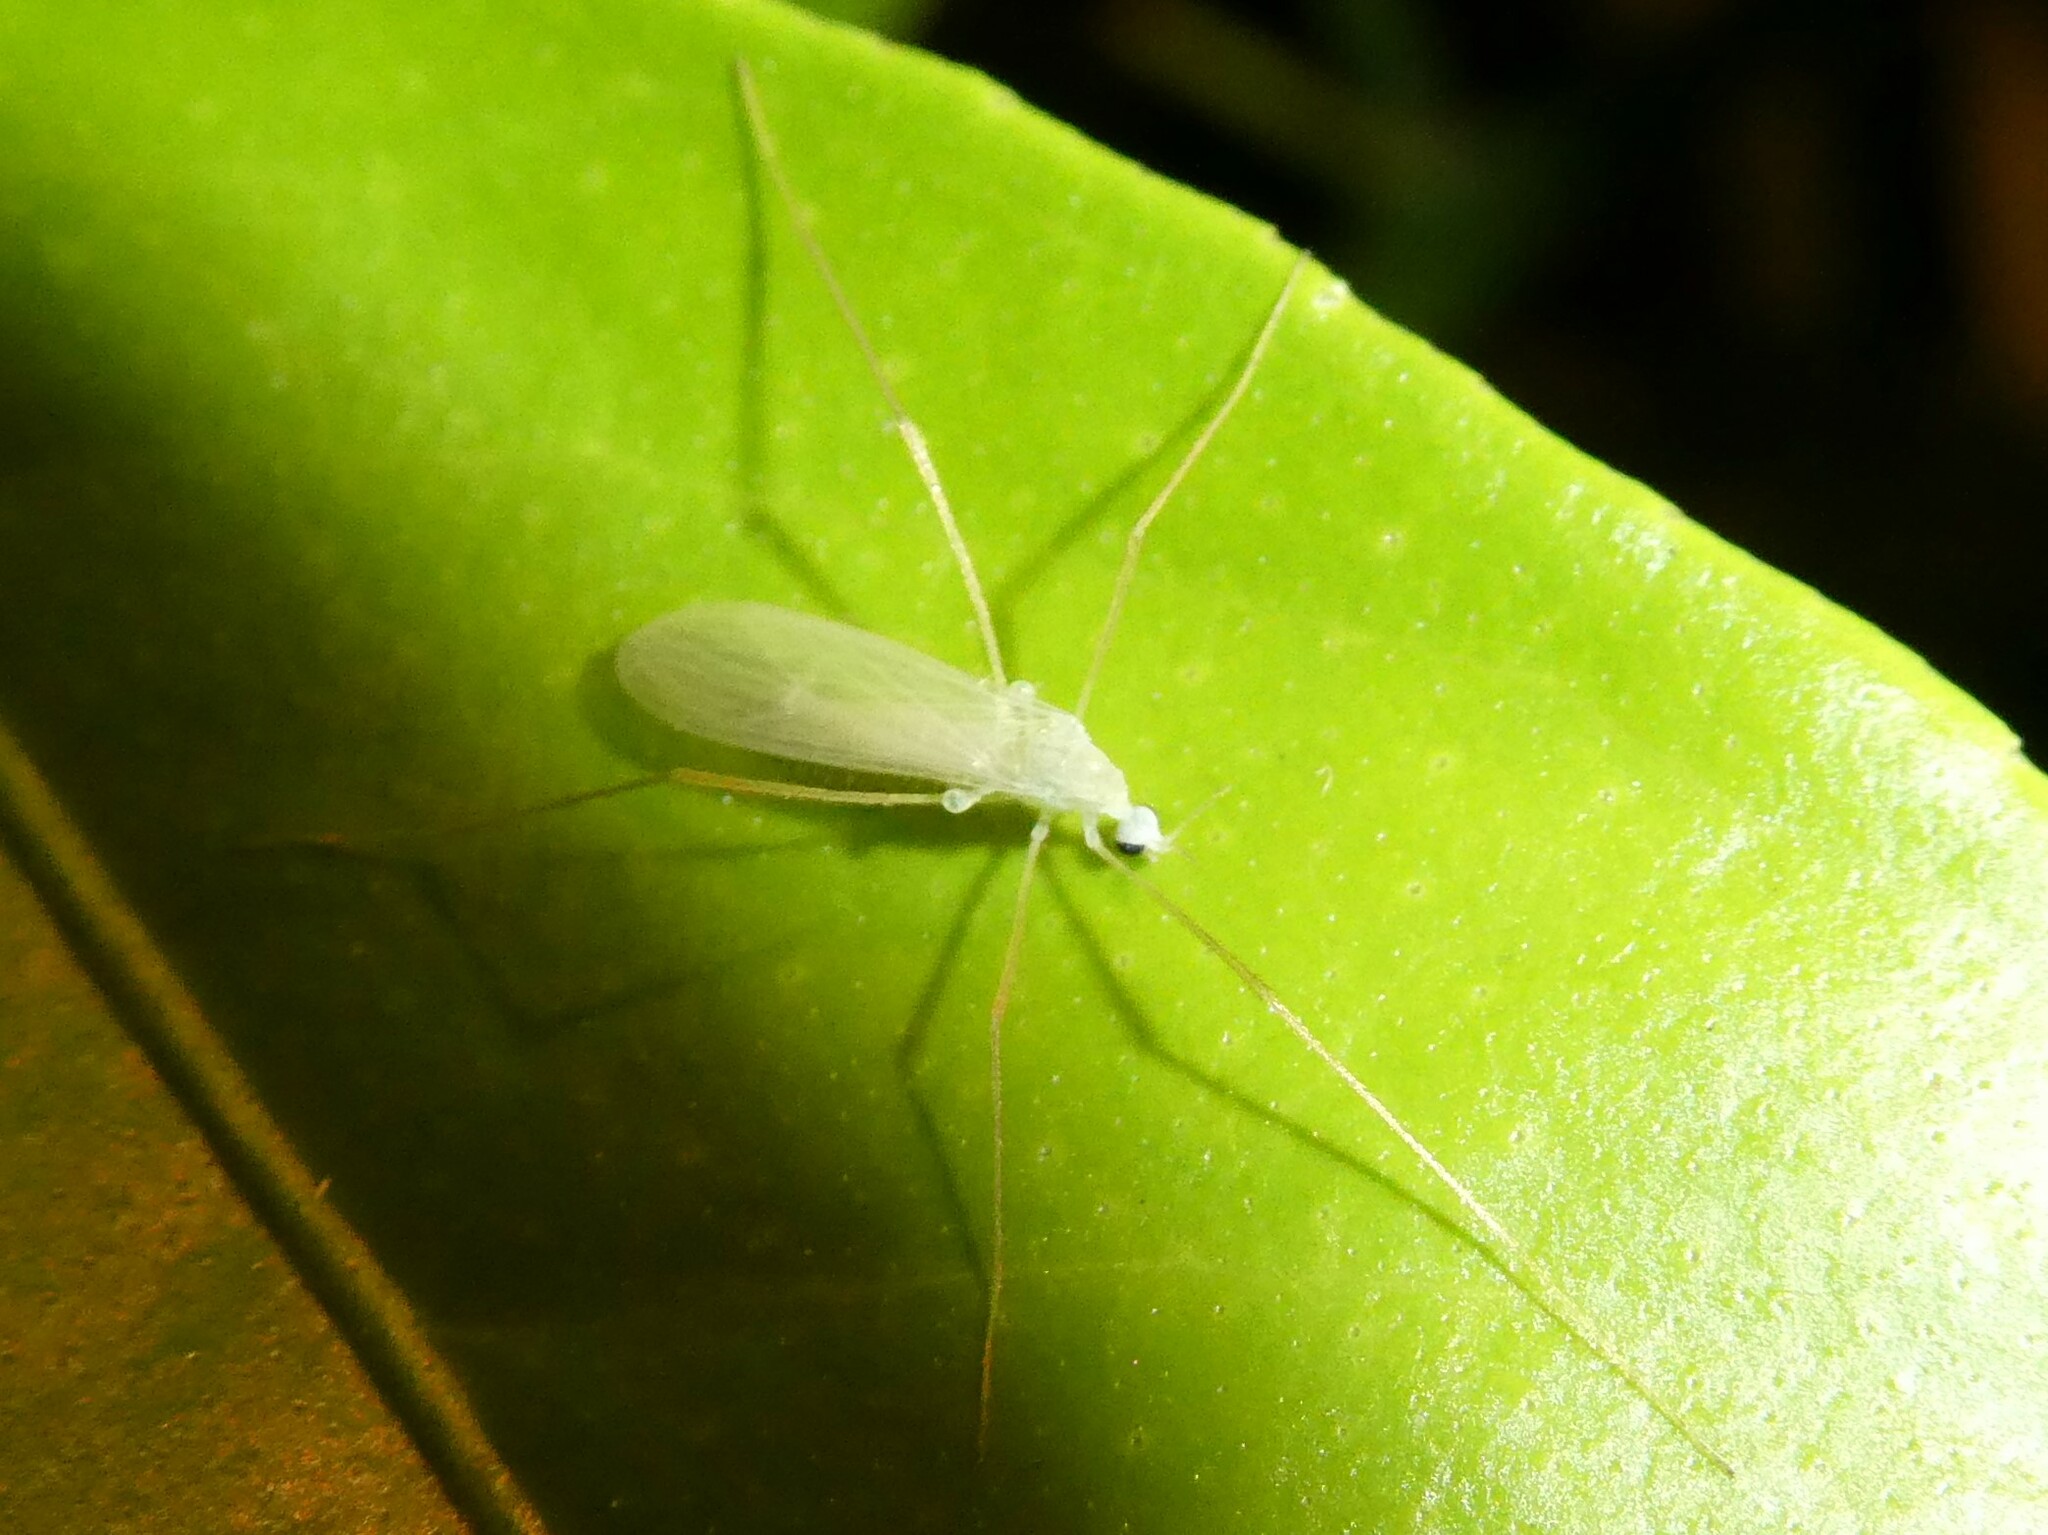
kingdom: Animalia
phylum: Arthropoda
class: Insecta
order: Diptera
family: Limoniidae
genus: Erioptera
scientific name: Erioptera
